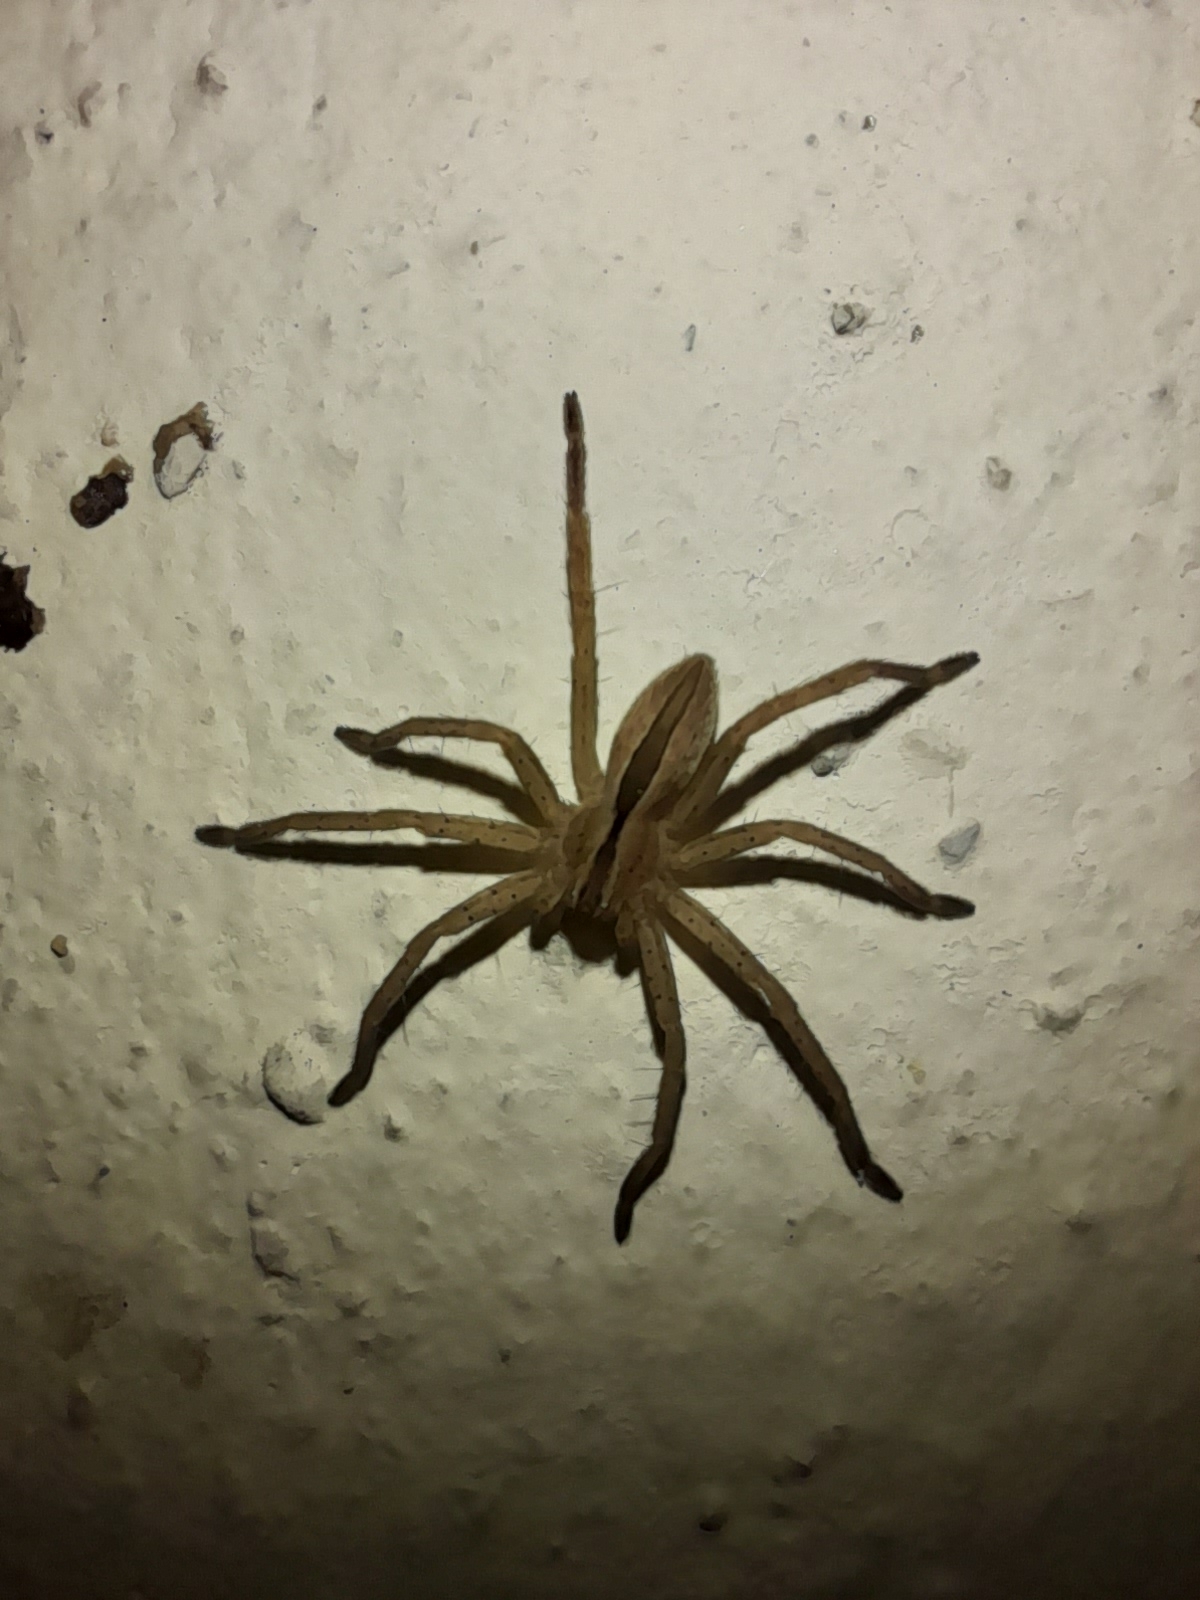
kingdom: Animalia
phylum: Arthropoda
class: Arachnida
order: Araneae
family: Sparassidae
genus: Micrommata
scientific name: Micrommata ligurina
